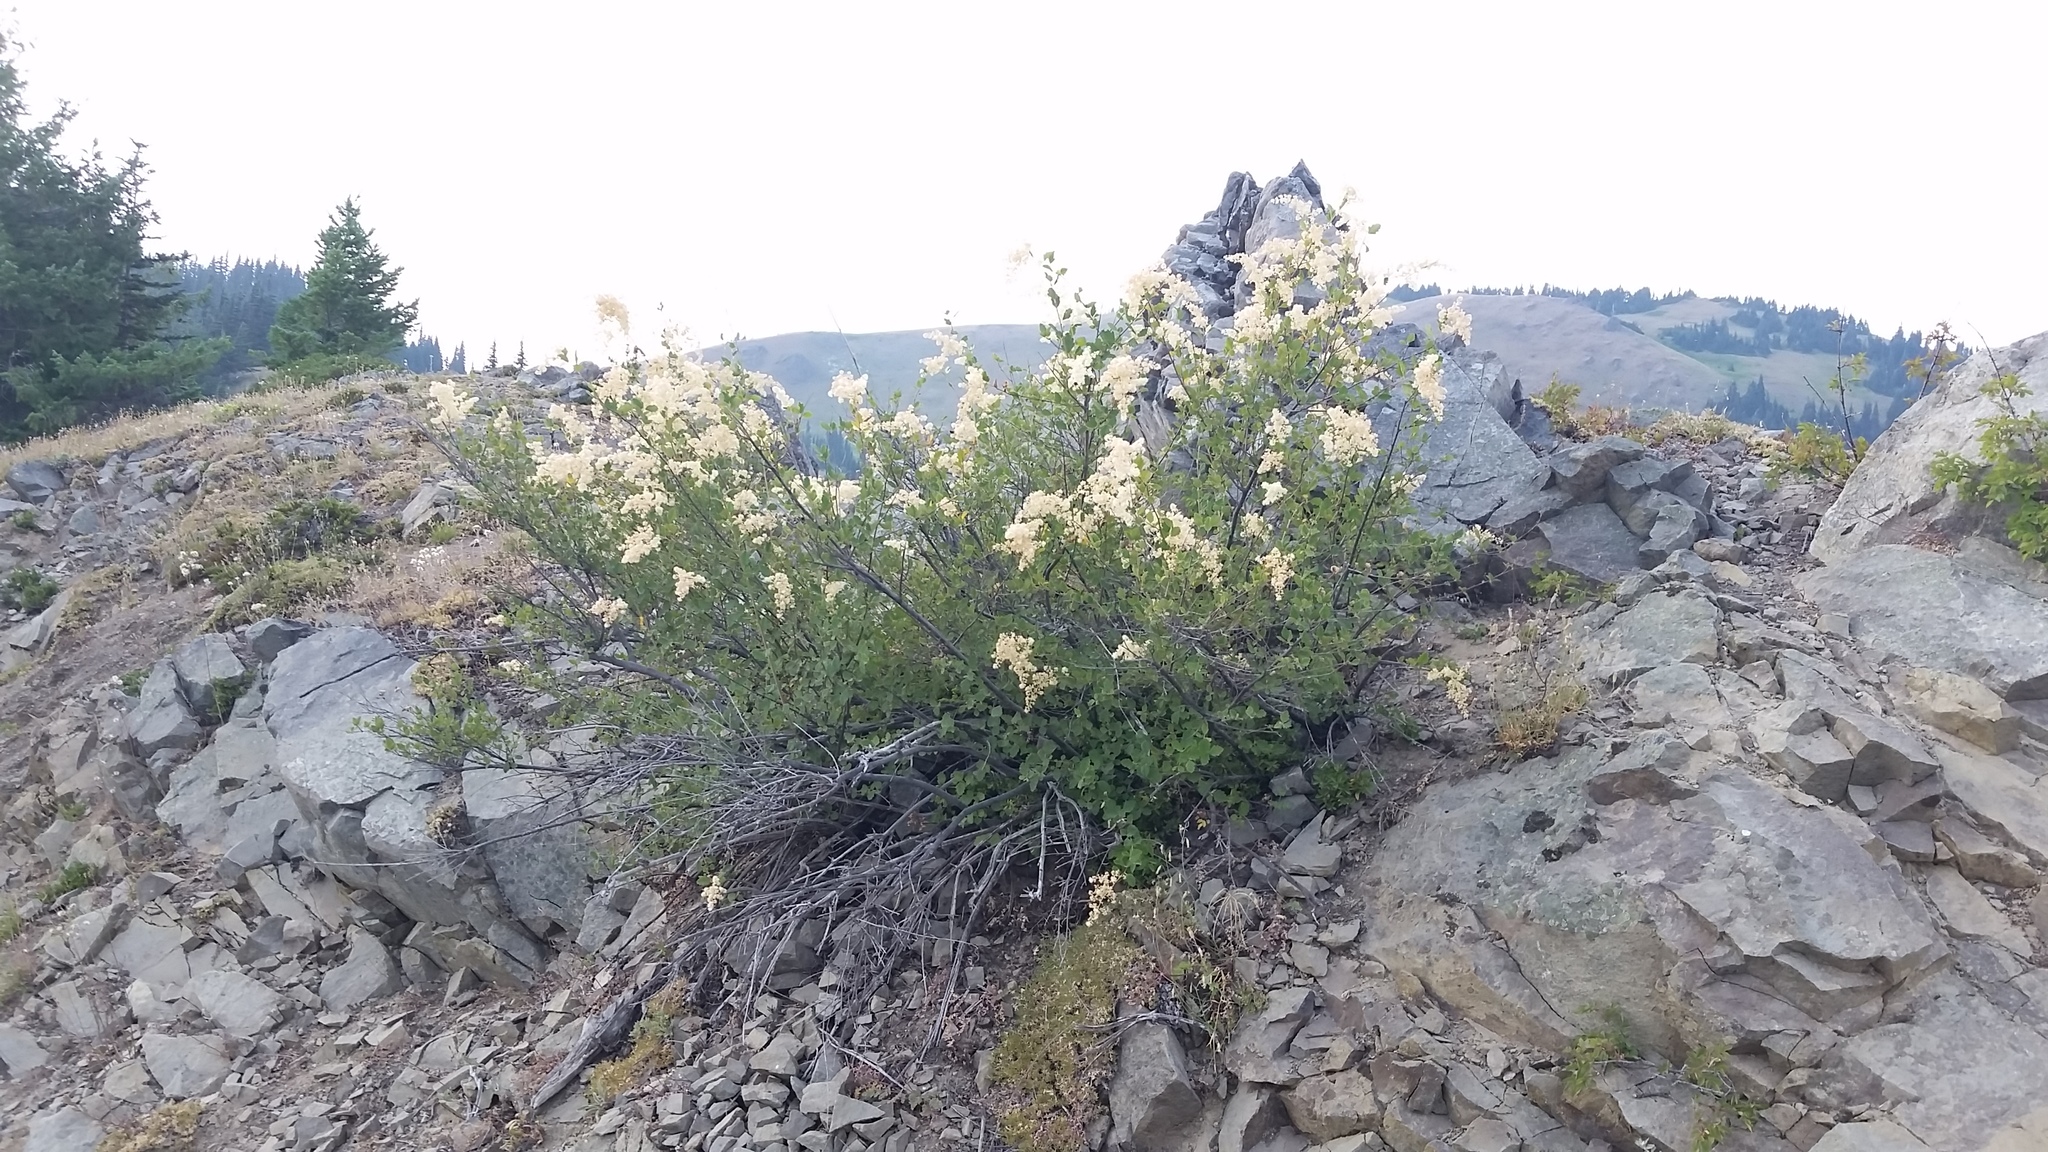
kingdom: Plantae
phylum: Tracheophyta
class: Magnoliopsida
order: Rosales
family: Rosaceae
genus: Holodiscus
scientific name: Holodiscus discolor
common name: Oceanspray
